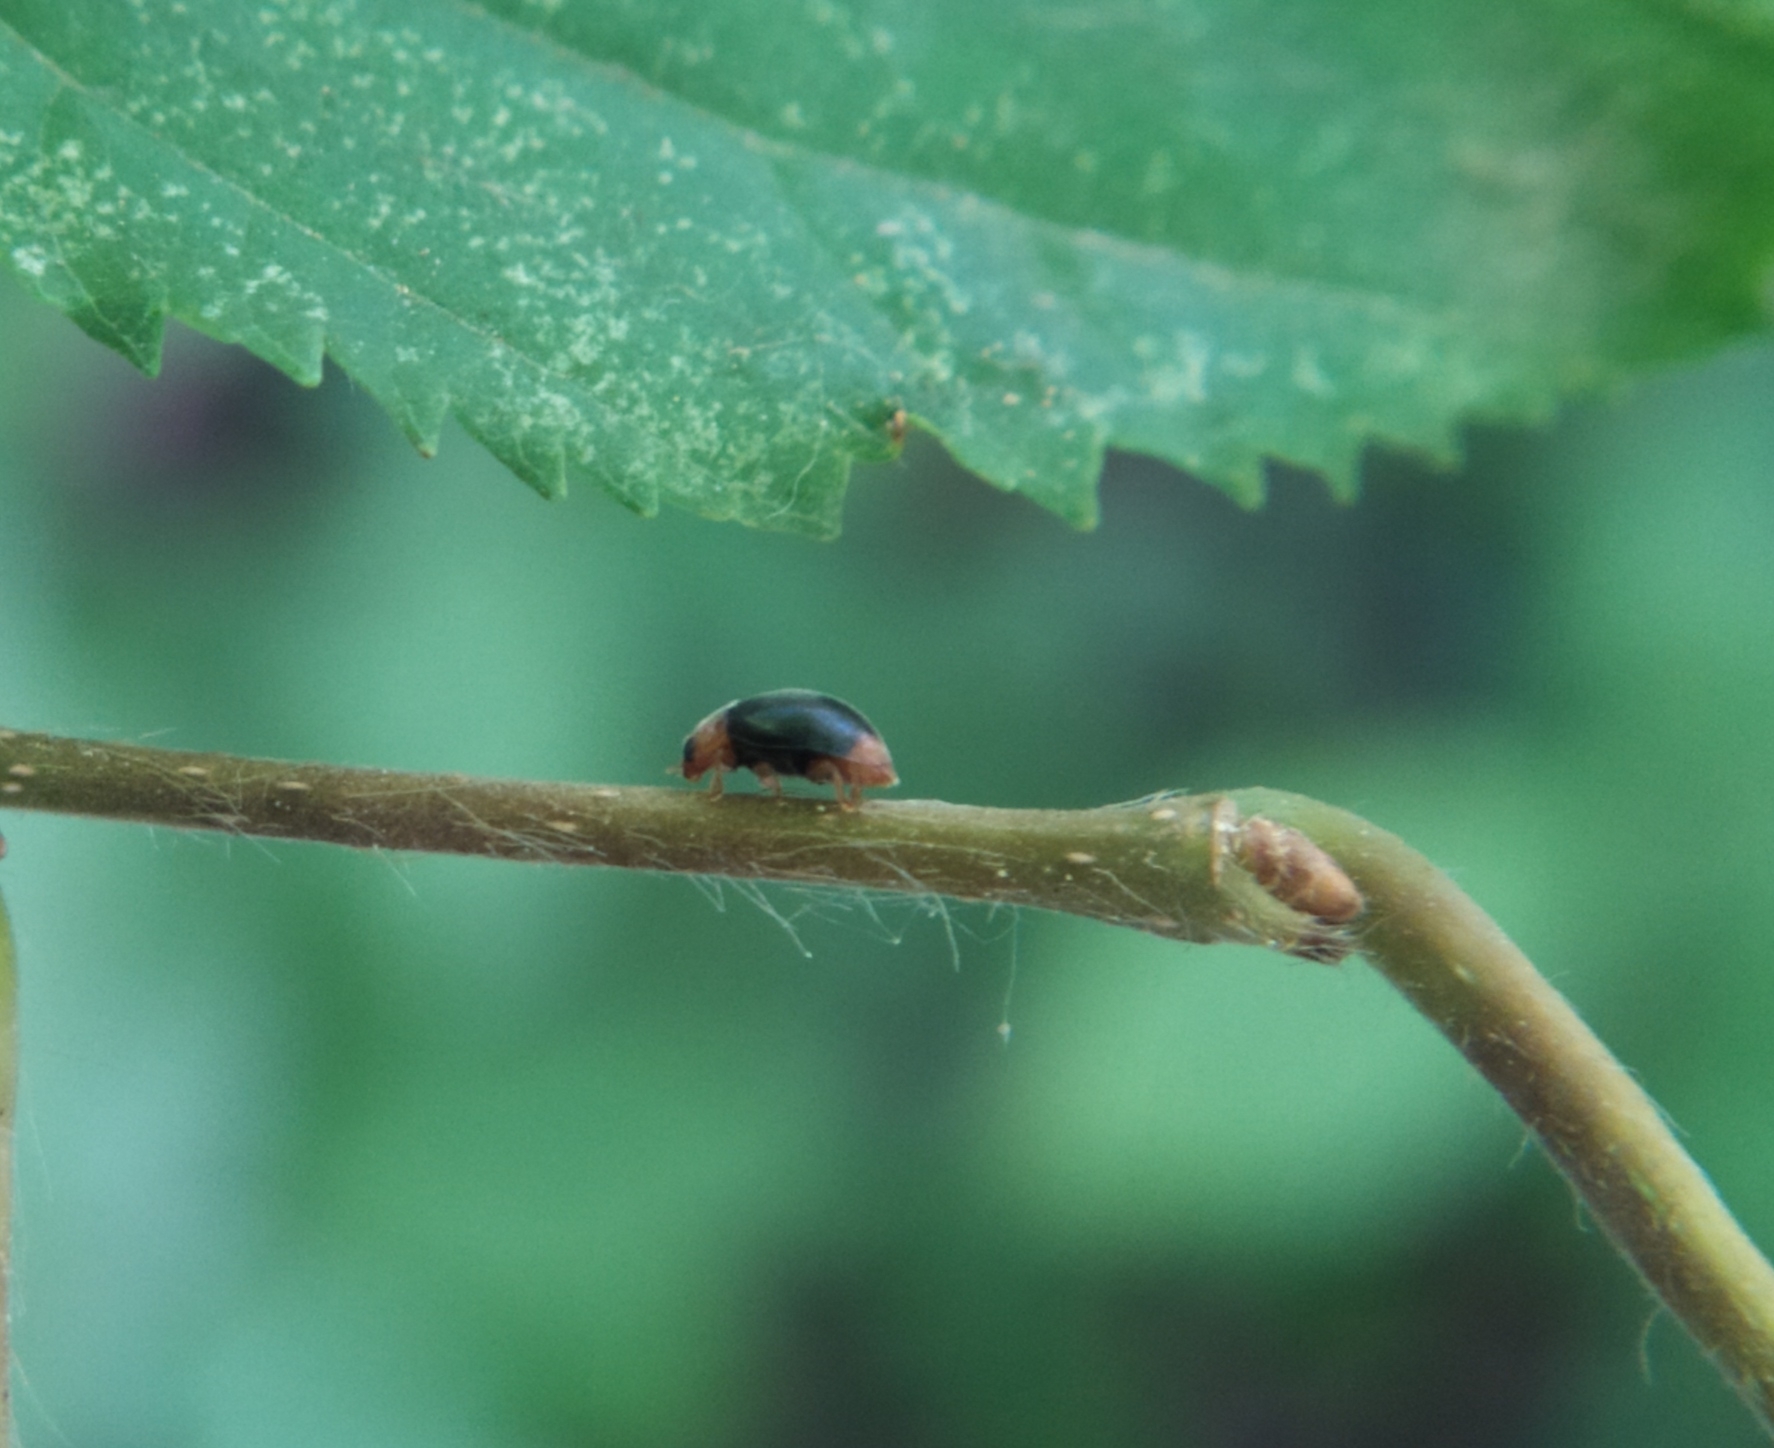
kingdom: Animalia
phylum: Arthropoda
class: Insecta
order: Coleoptera
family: Coccinellidae
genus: Cryptolaemus
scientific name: Cryptolaemus montrouzieri
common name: Mealybug destroyer
